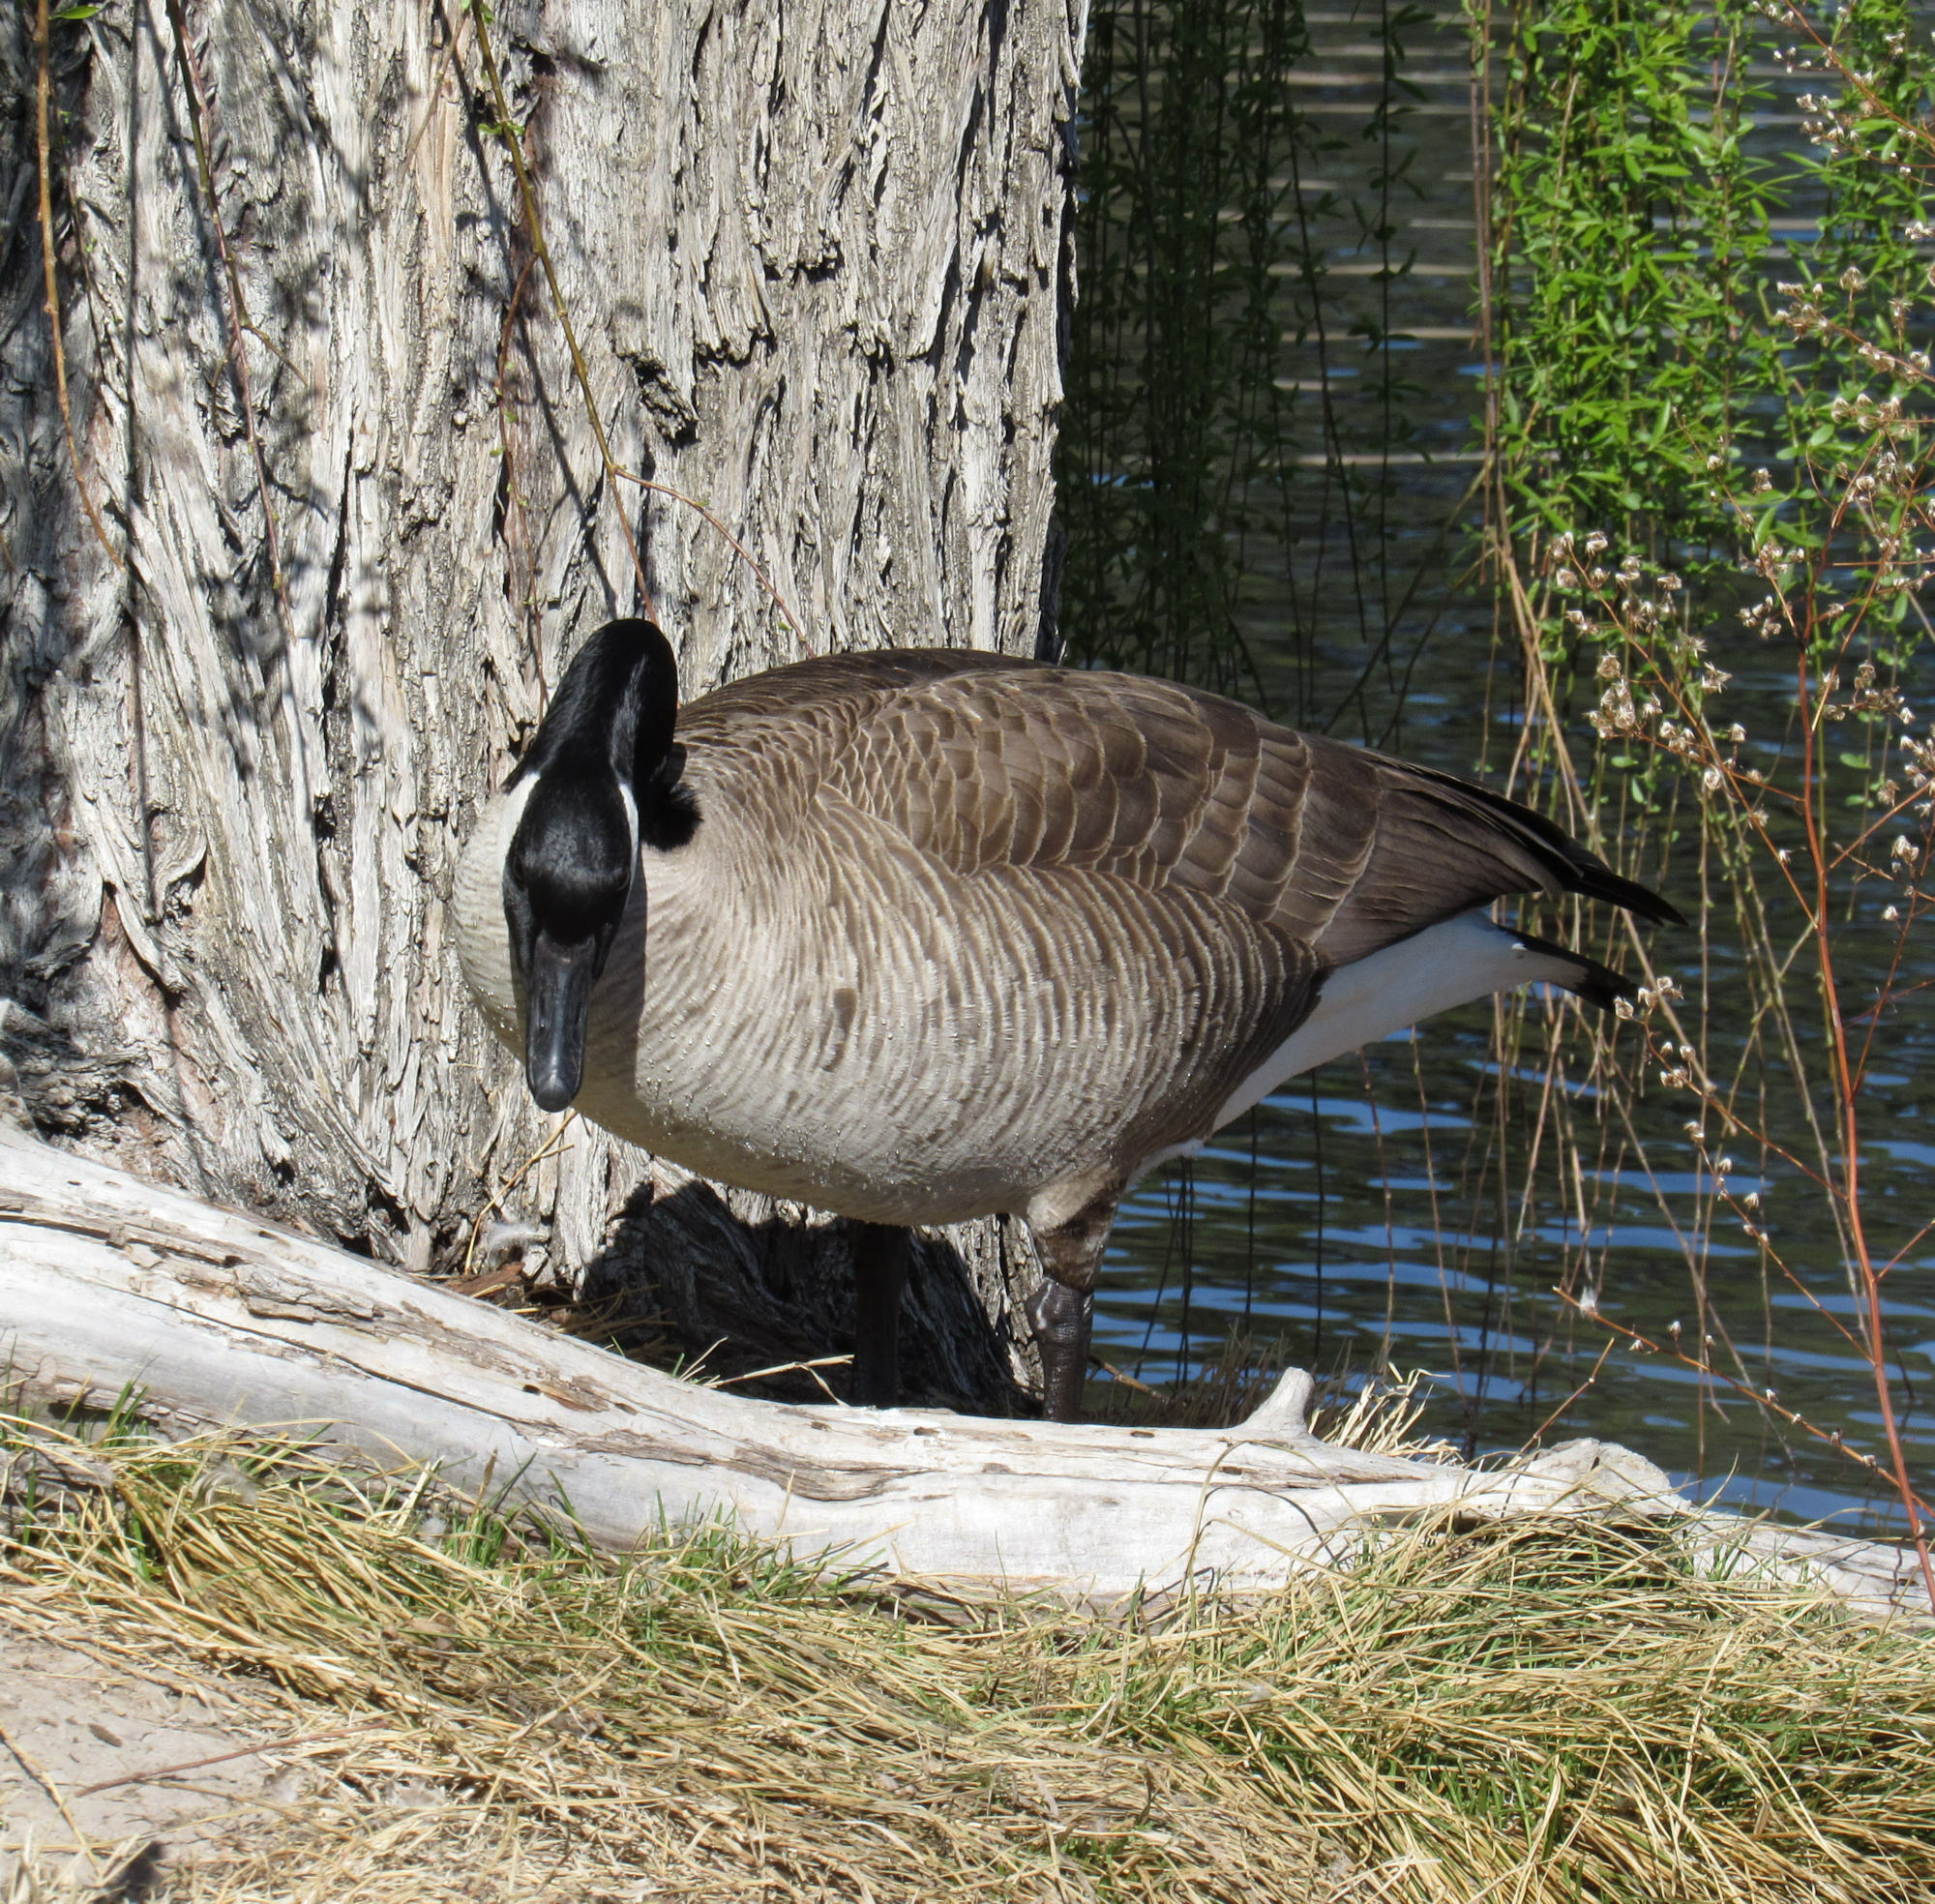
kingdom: Animalia
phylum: Chordata
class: Aves
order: Anseriformes
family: Anatidae
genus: Branta
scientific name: Branta canadensis
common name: Canada goose
